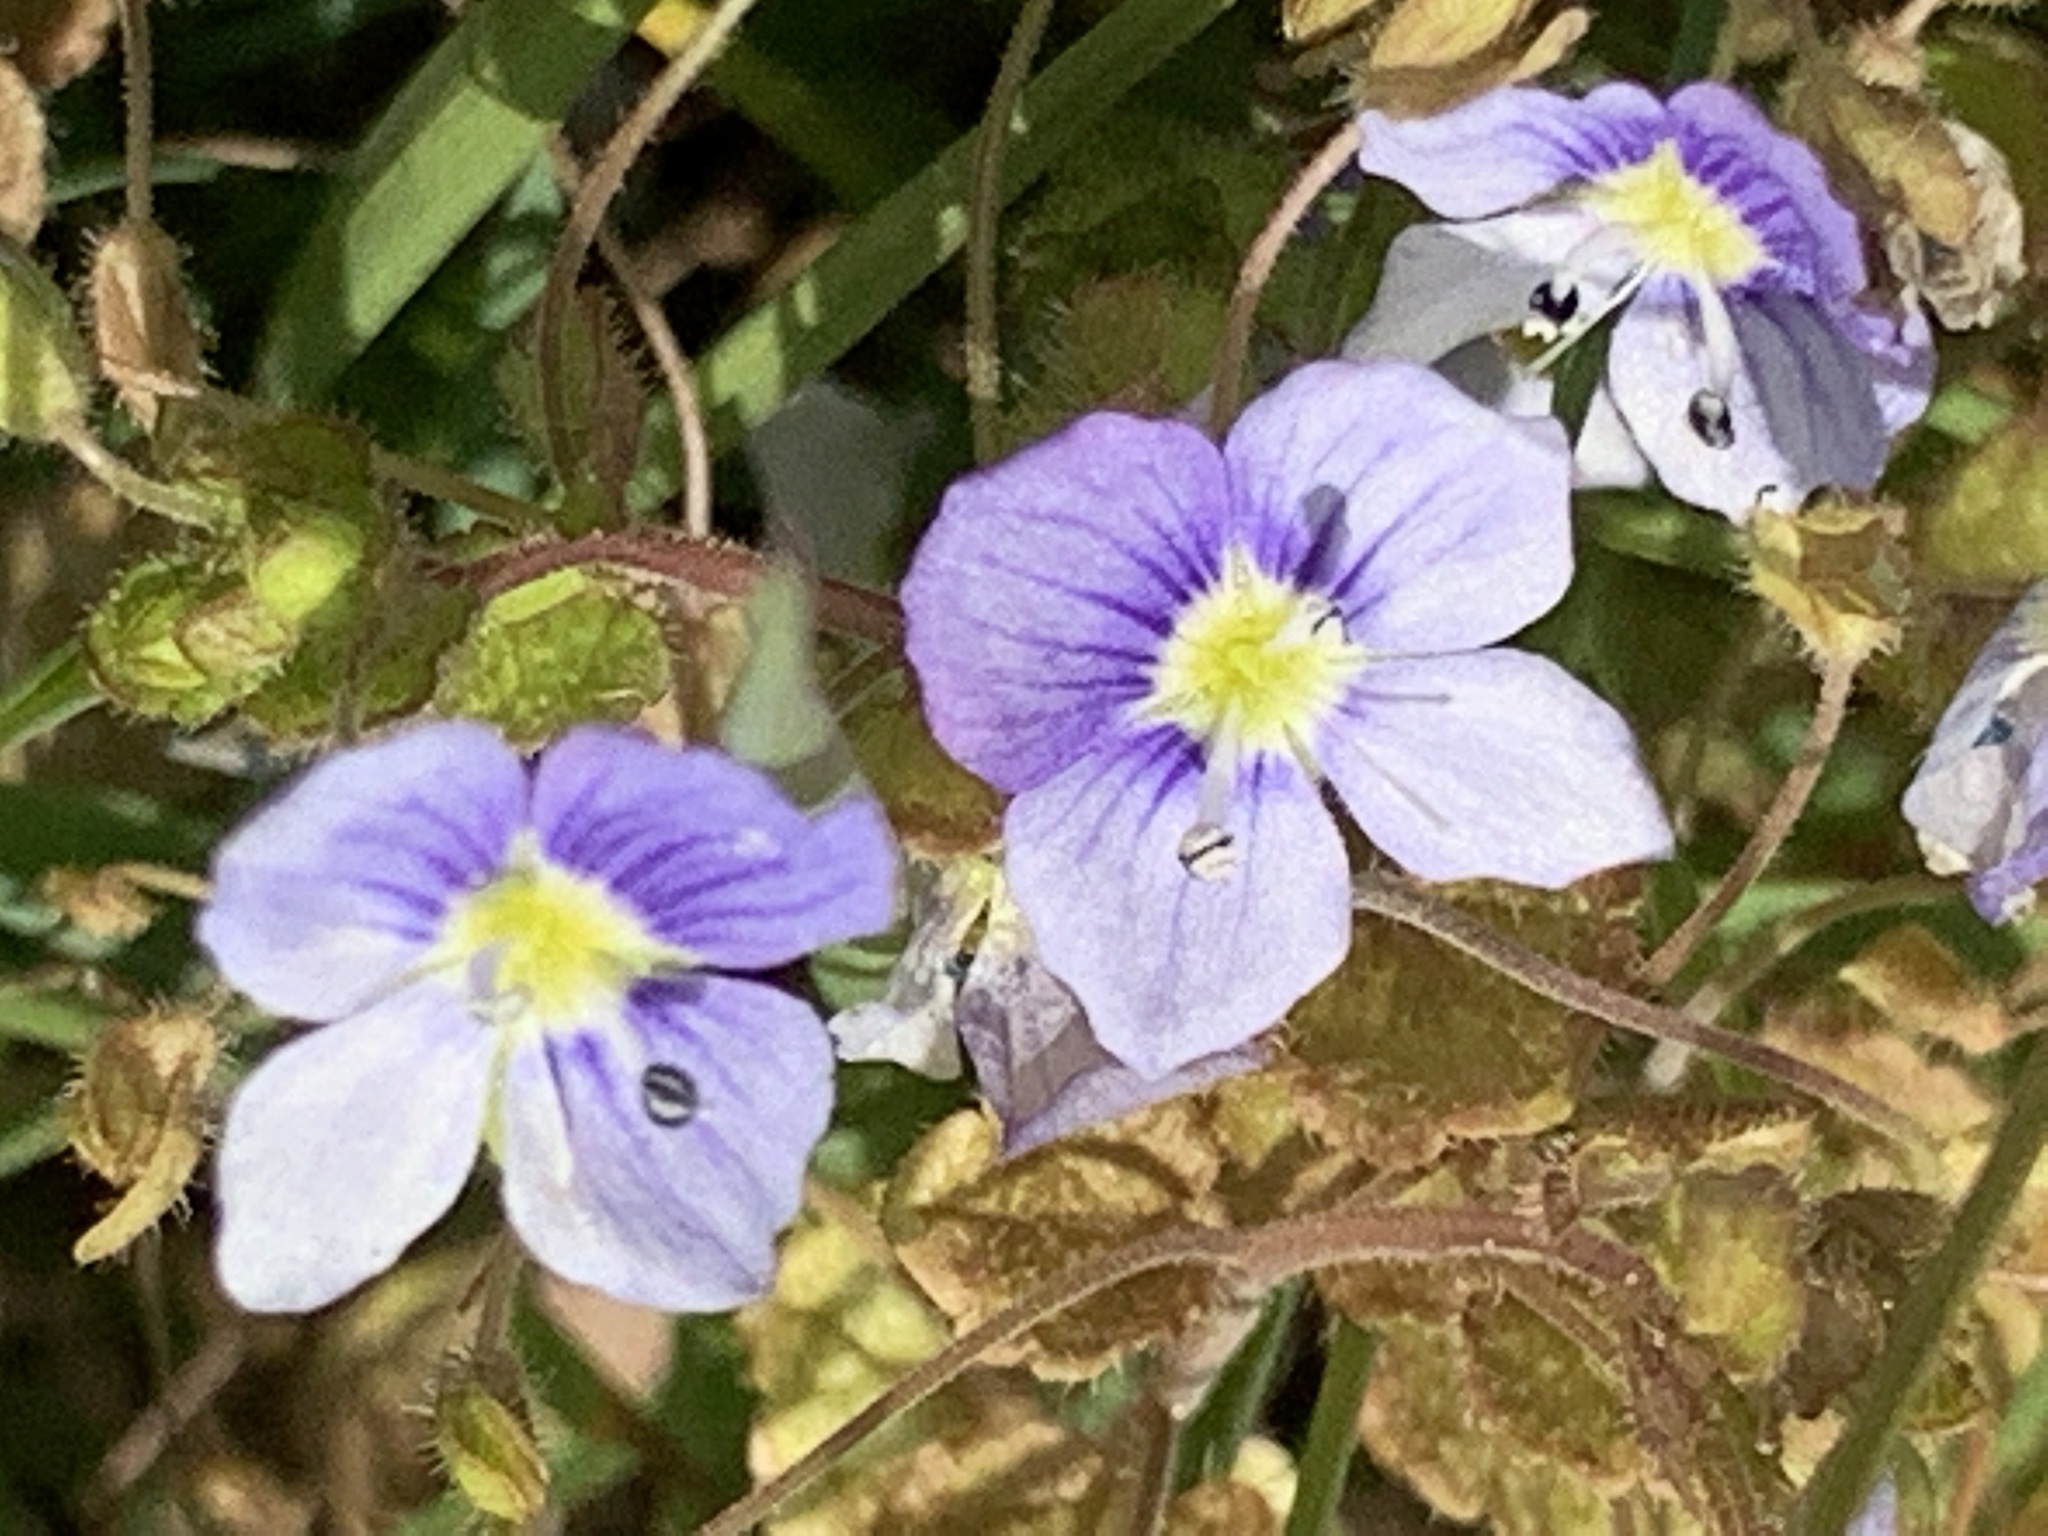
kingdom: Plantae
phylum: Tracheophyta
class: Magnoliopsida
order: Lamiales
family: Plantaginaceae
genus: Veronica
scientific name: Veronica filiformis
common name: Slender speedwell
